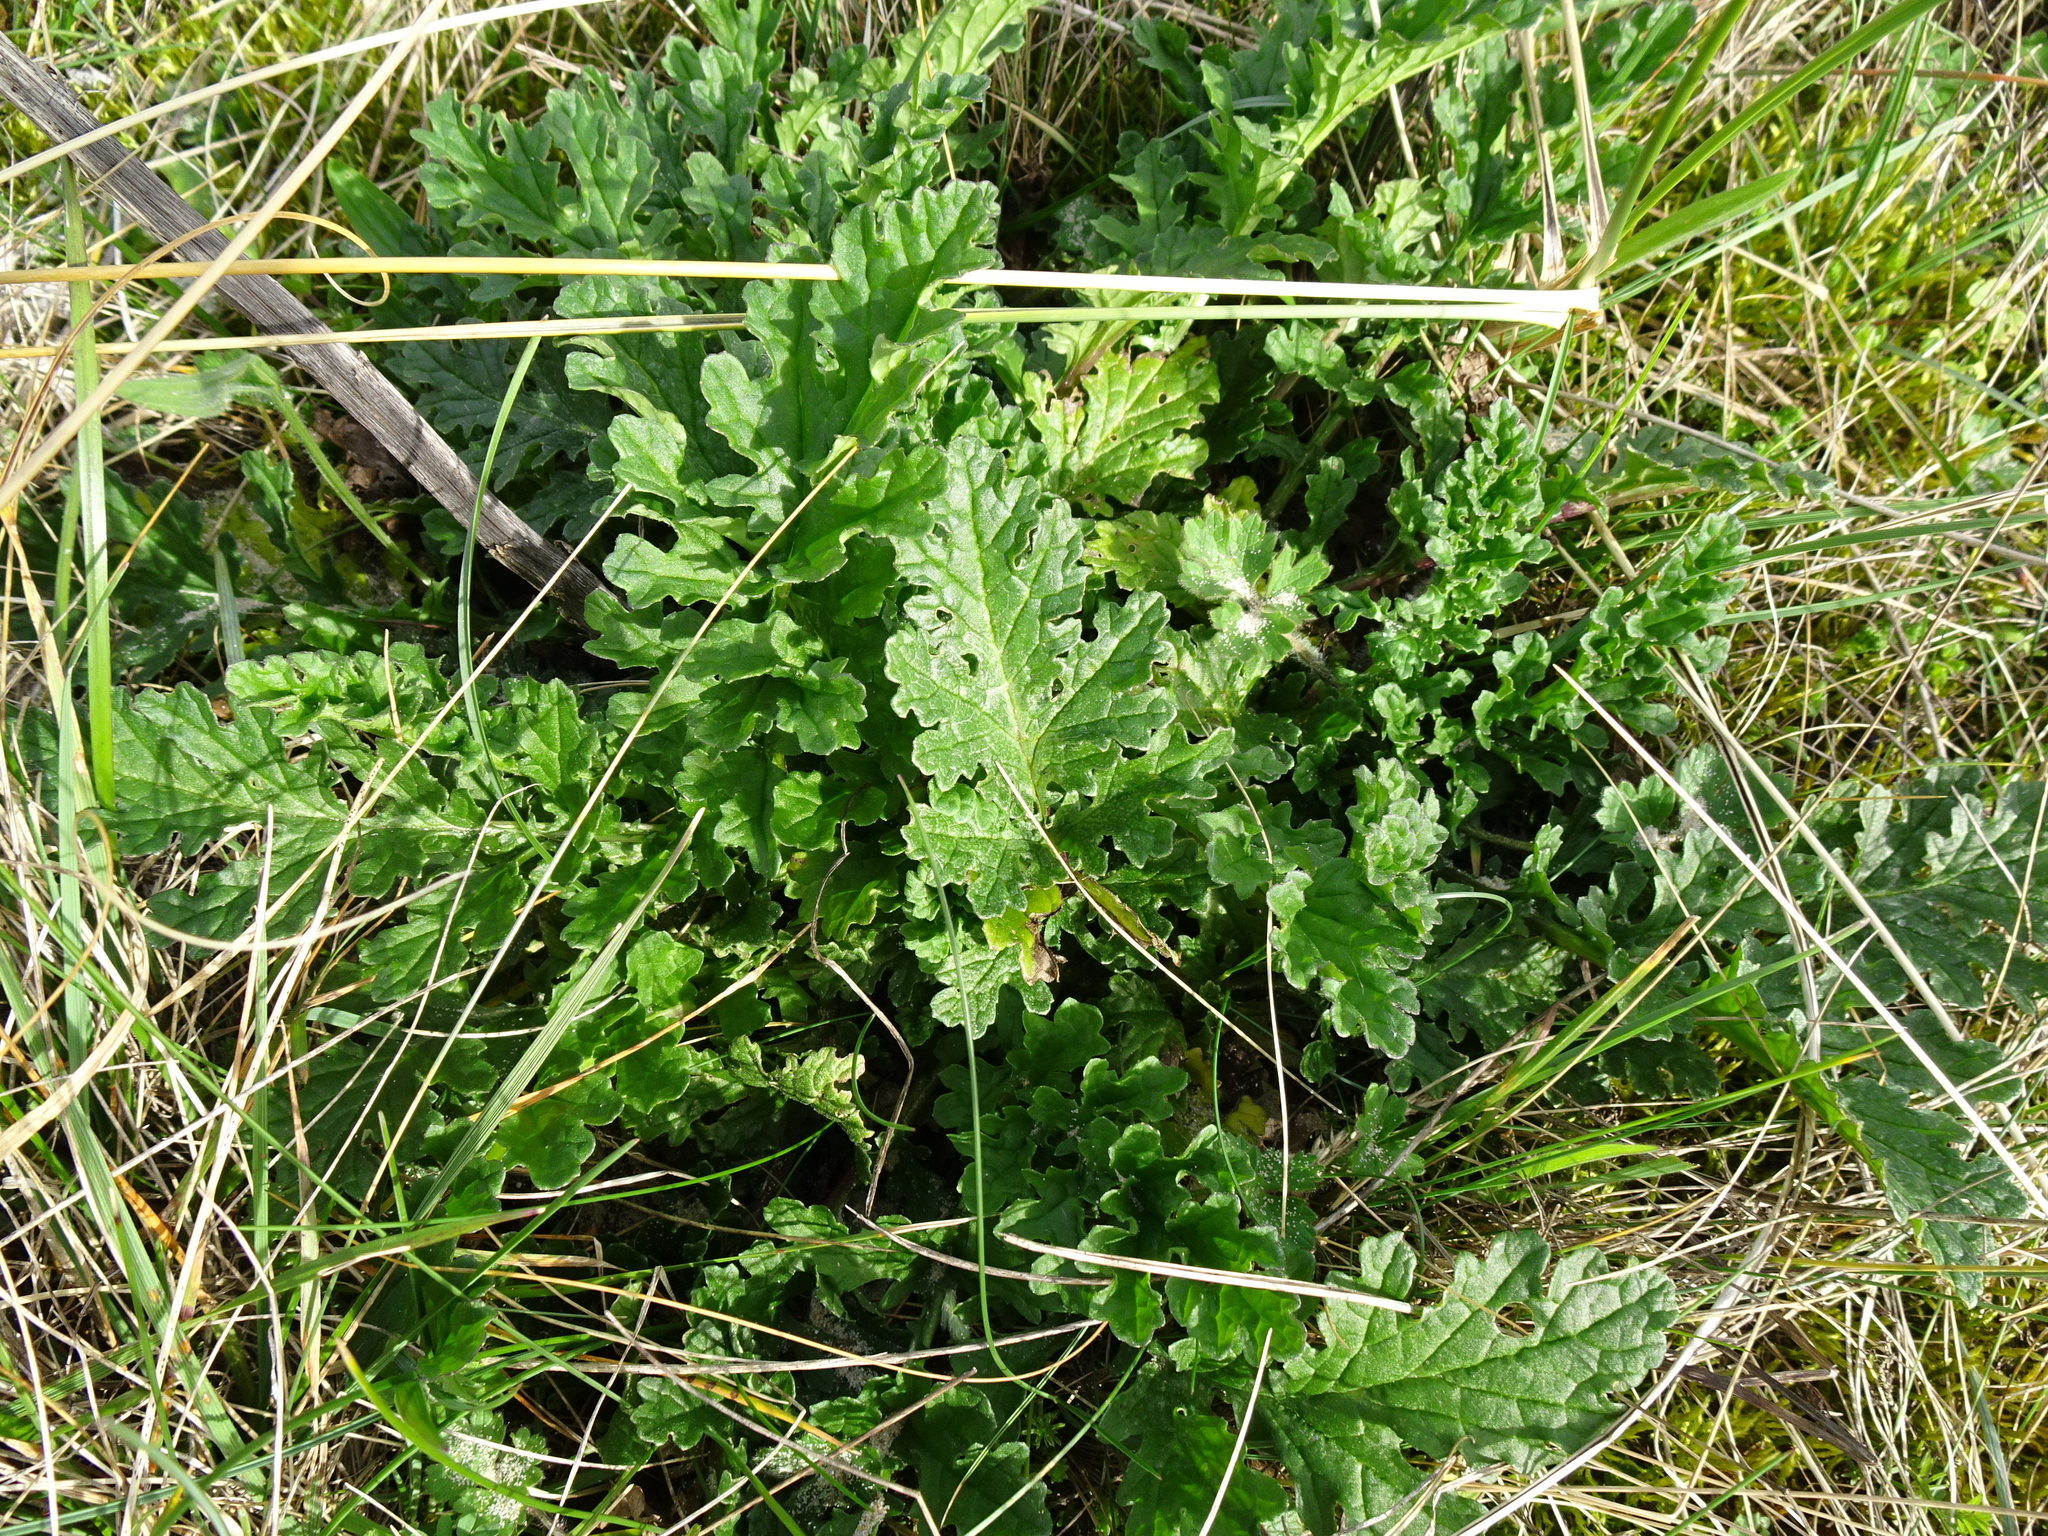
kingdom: Plantae
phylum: Tracheophyta
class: Magnoliopsida
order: Asterales
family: Asteraceae
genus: Jacobaea
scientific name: Jacobaea vulgaris
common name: Stinking willie
